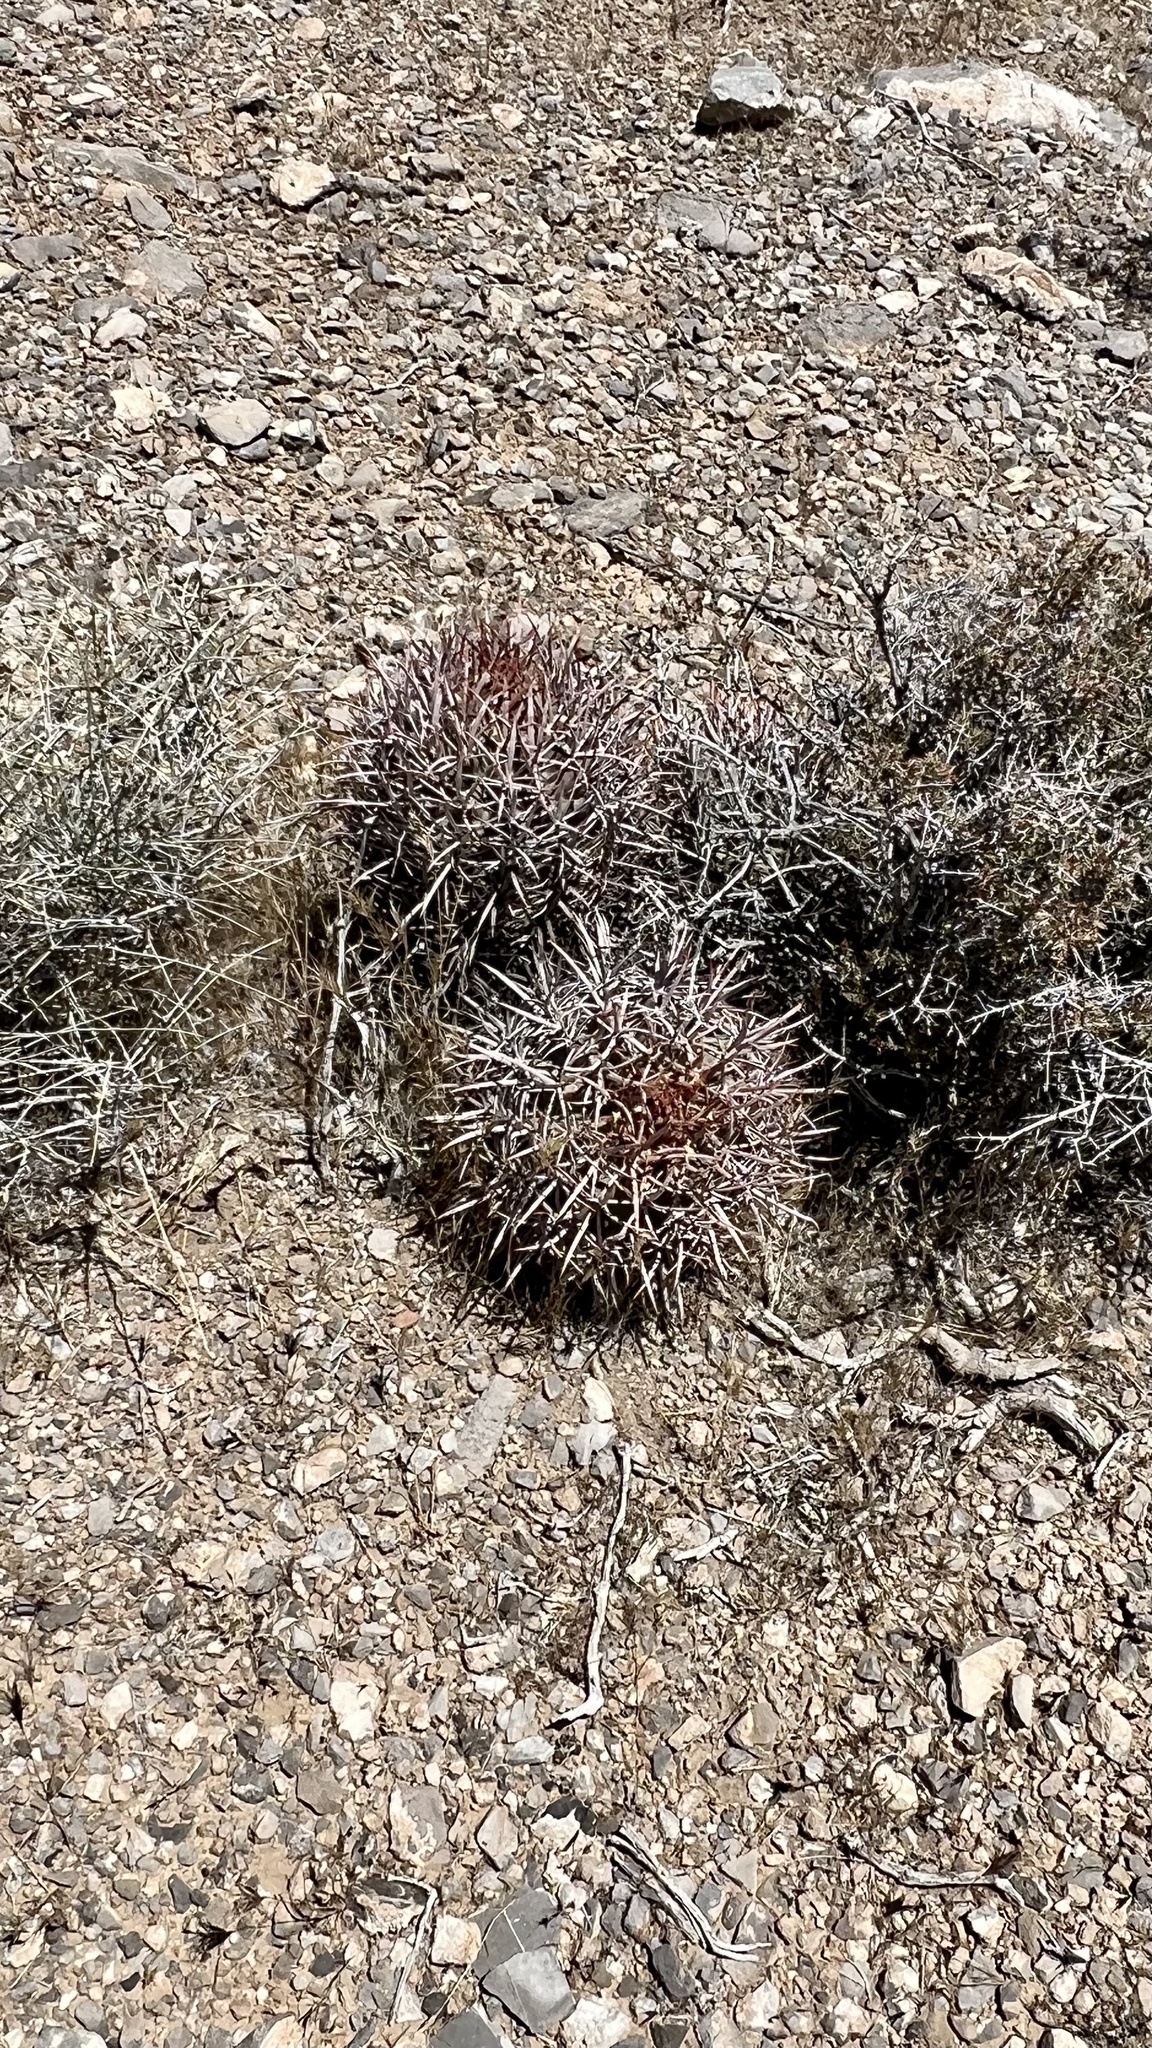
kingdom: Plantae
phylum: Tracheophyta
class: Magnoliopsida
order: Caryophyllales
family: Cactaceae
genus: Echinocactus
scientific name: Echinocactus polycephalus
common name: Cottontop cactus
